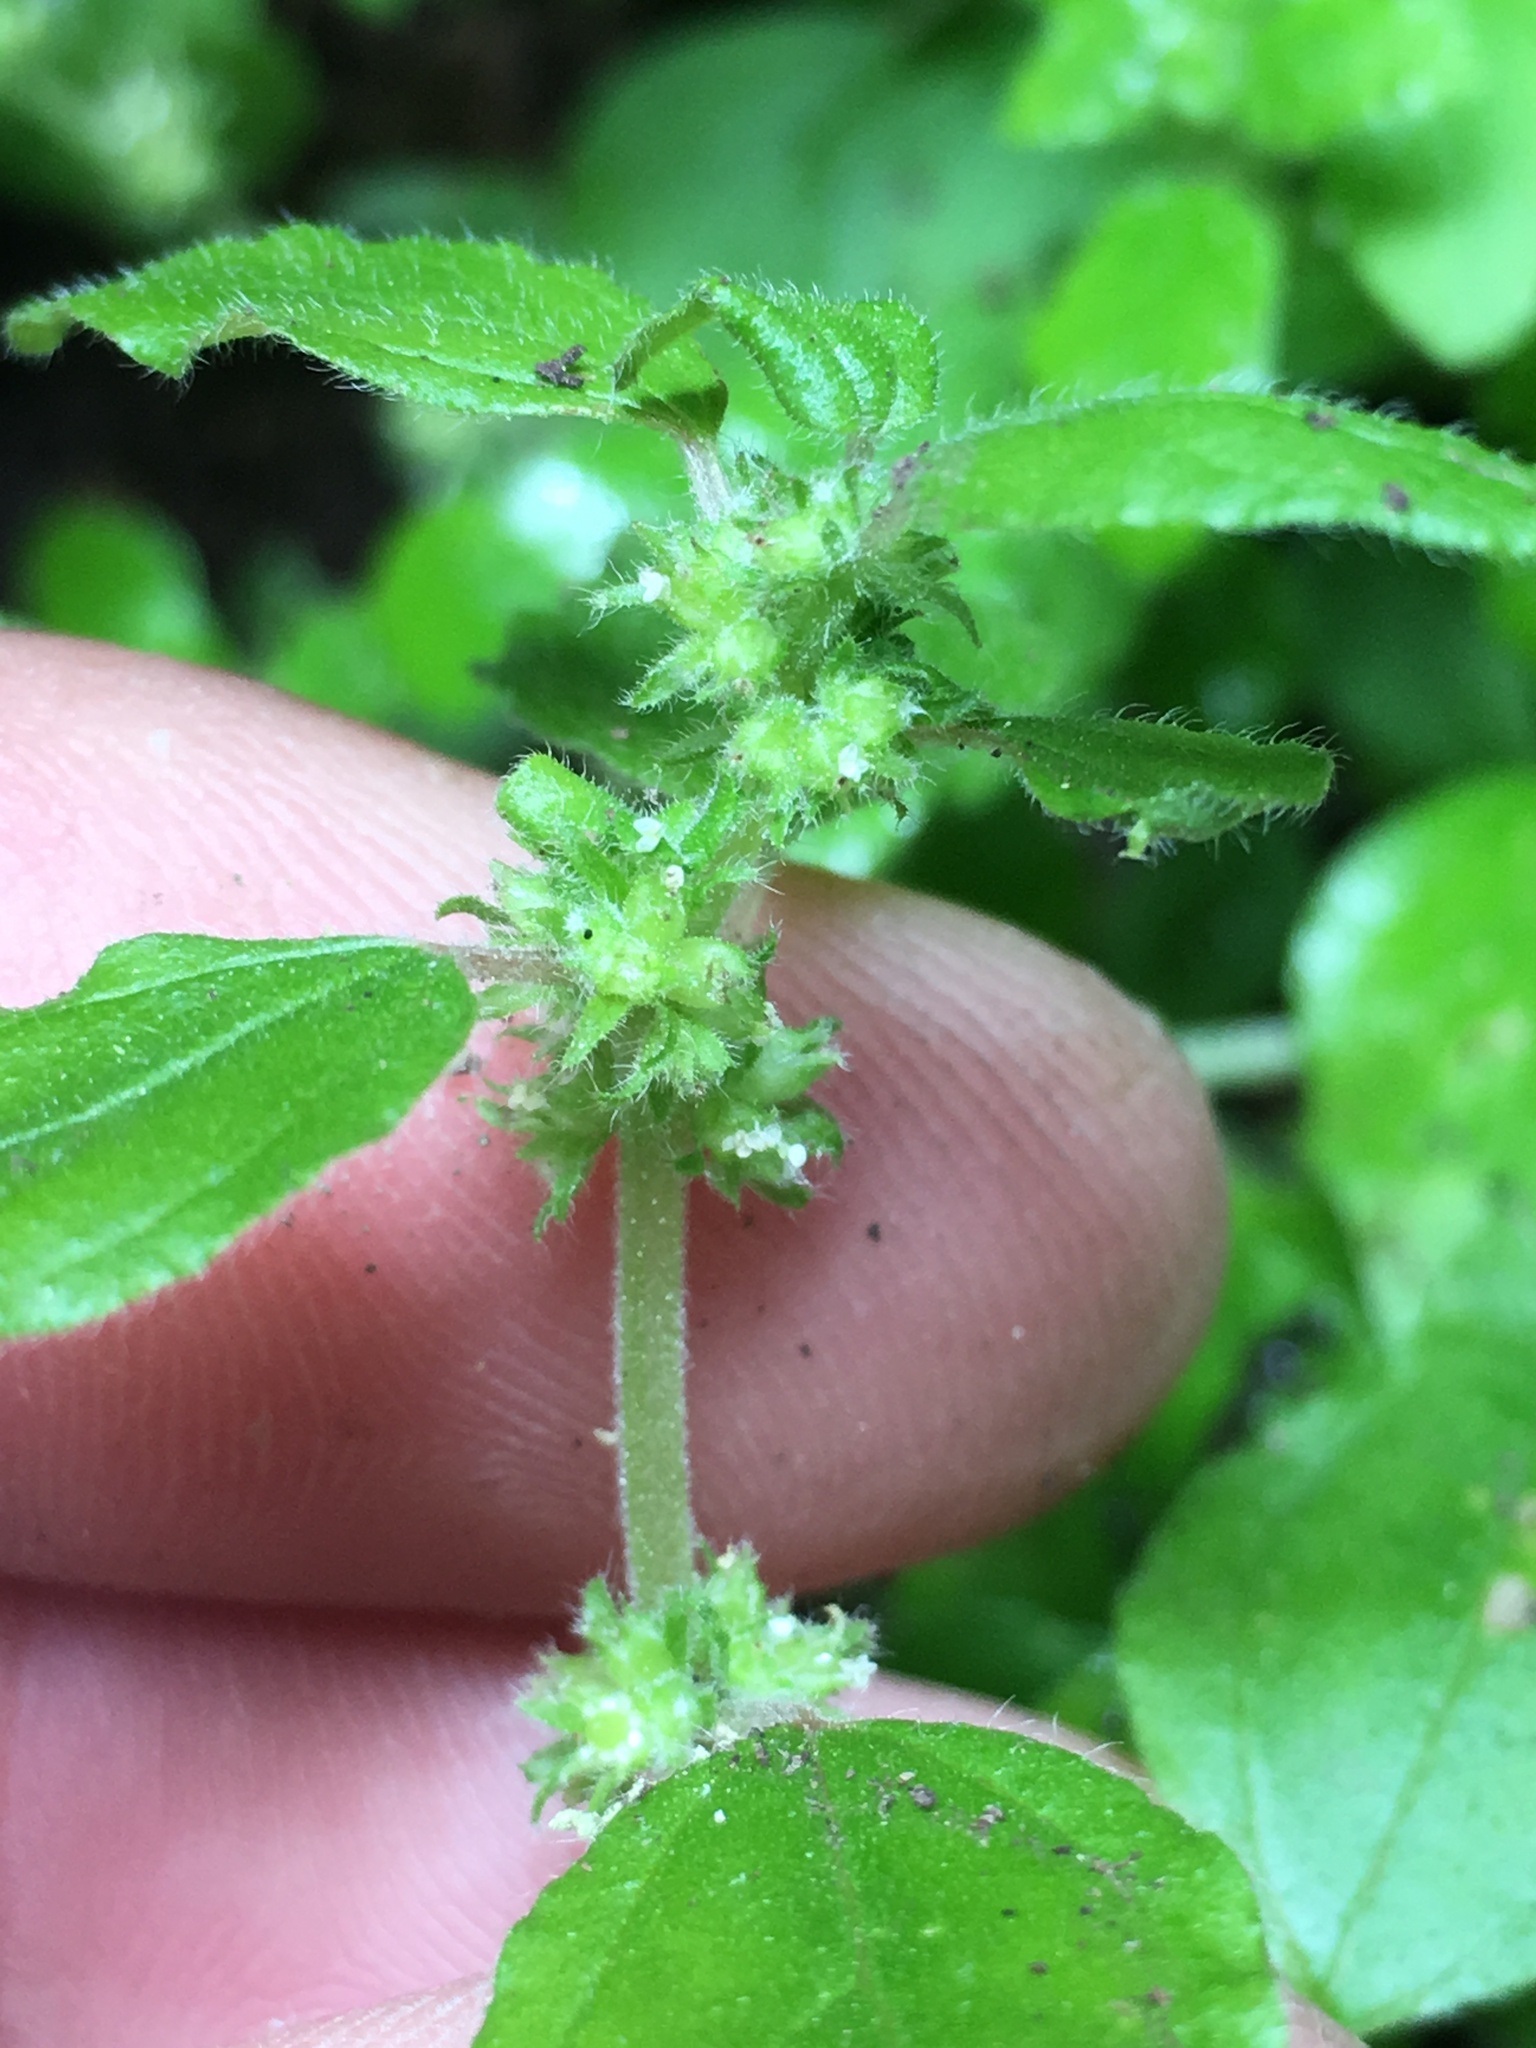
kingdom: Plantae
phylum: Tracheophyta
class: Magnoliopsida
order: Rosales
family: Urticaceae
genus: Parietaria
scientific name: Parietaria hespera
